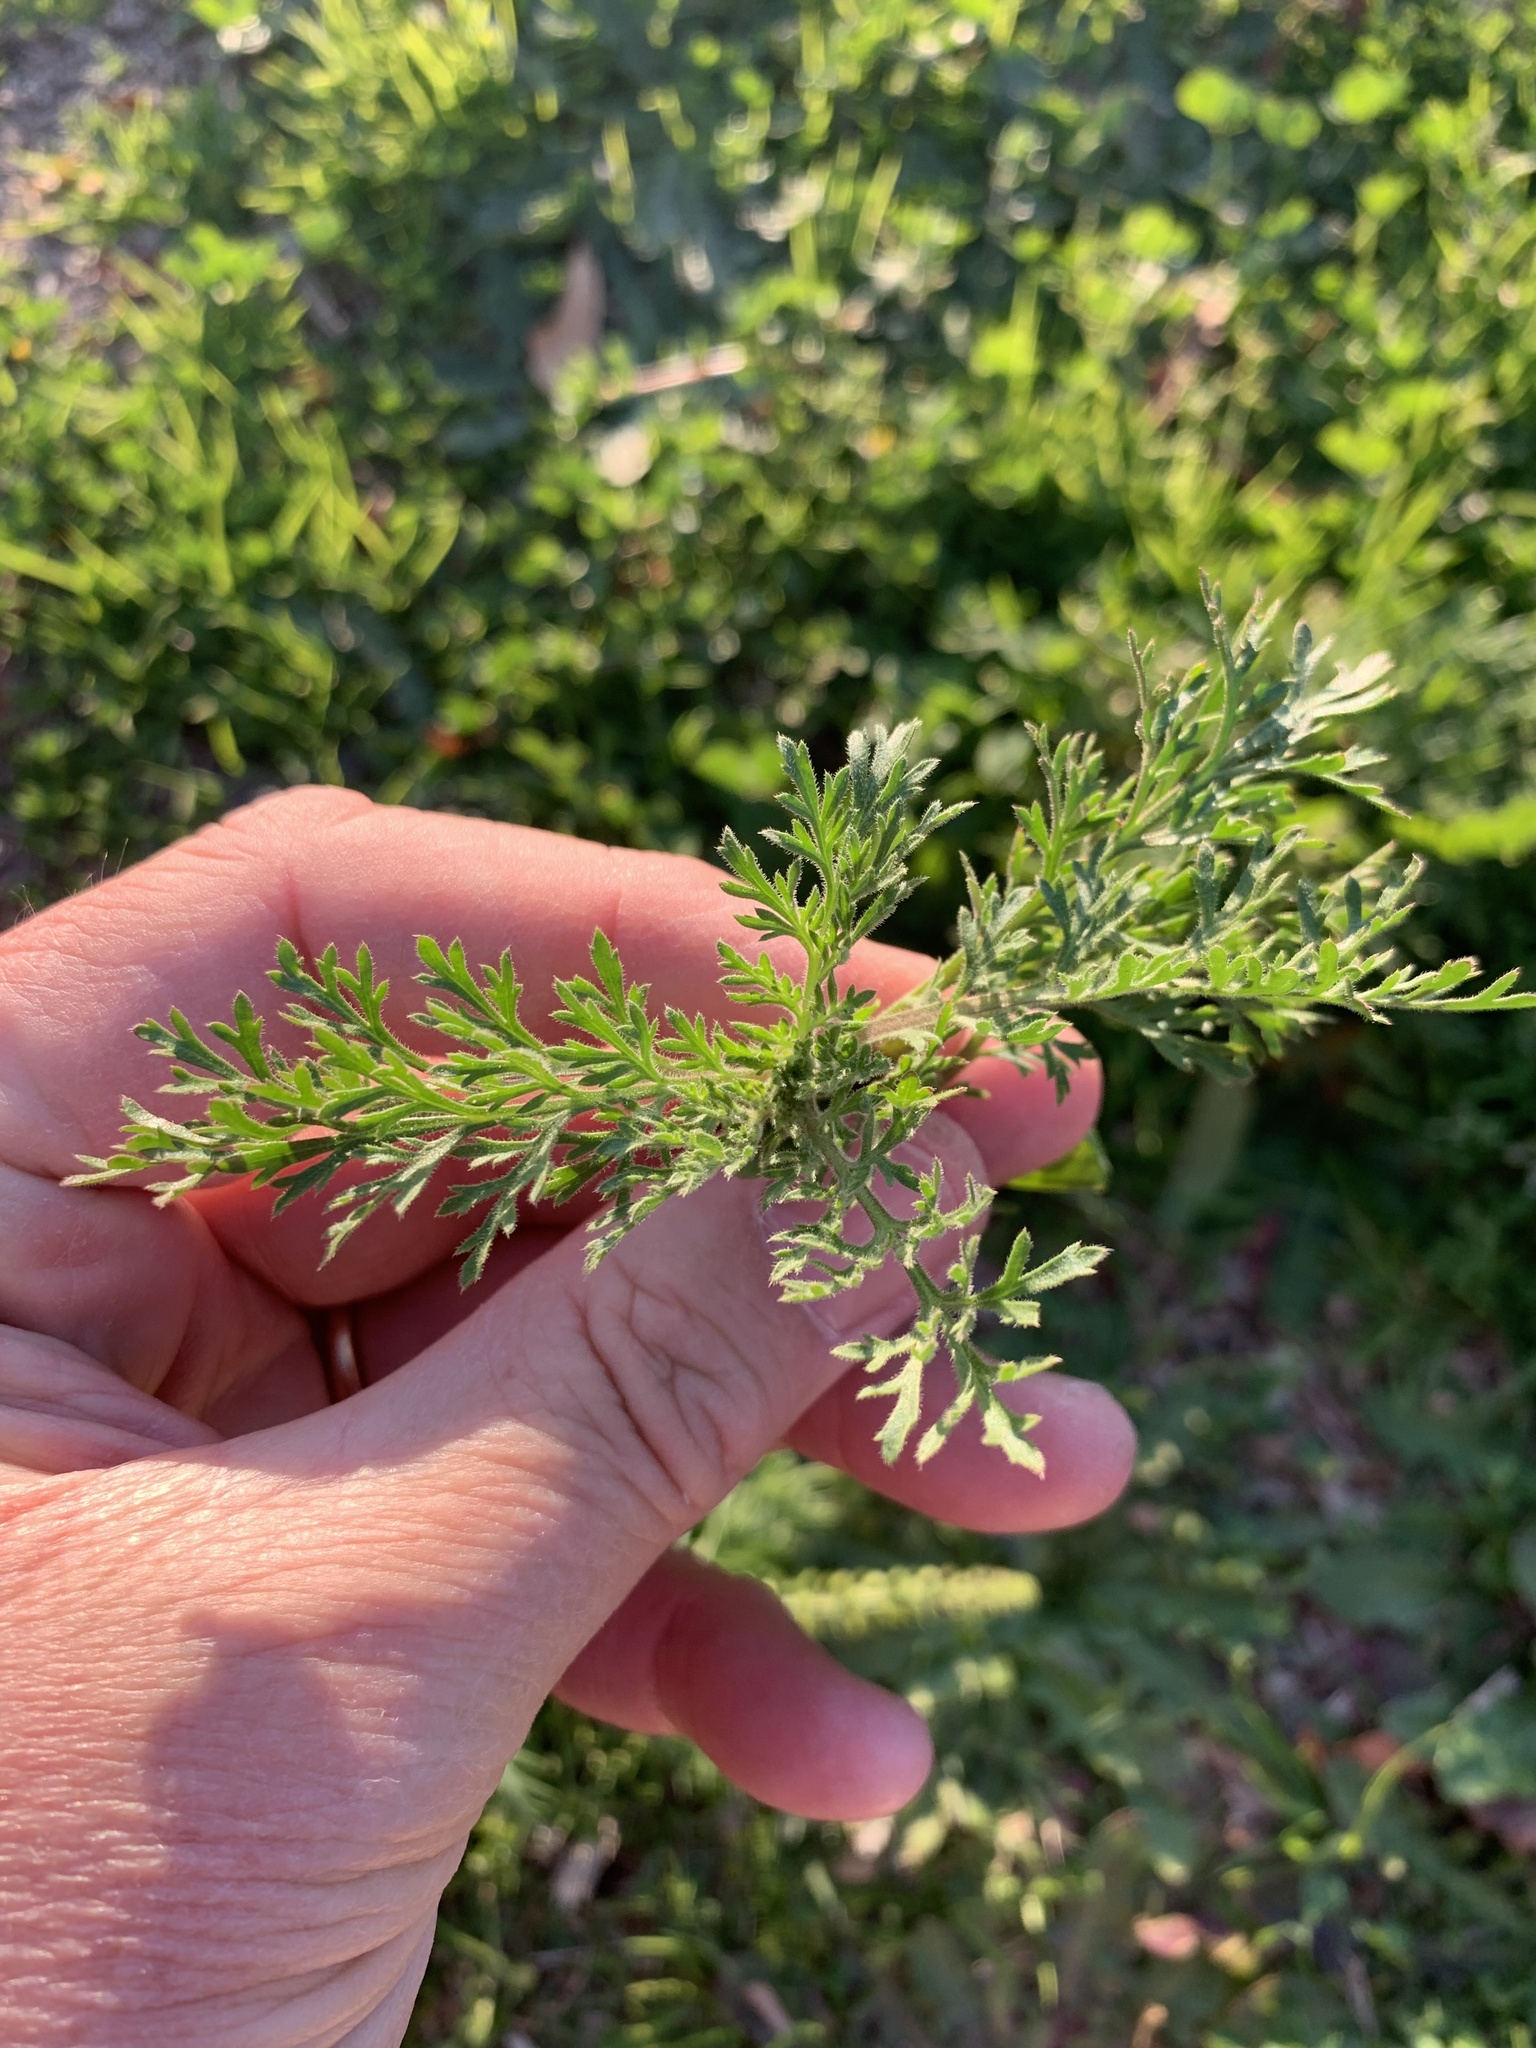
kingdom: Plantae
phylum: Tracheophyta
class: Magnoliopsida
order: Brassicales
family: Brassicaceae
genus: Lepidium
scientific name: Lepidium bonariense
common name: Argentine pepperwort
